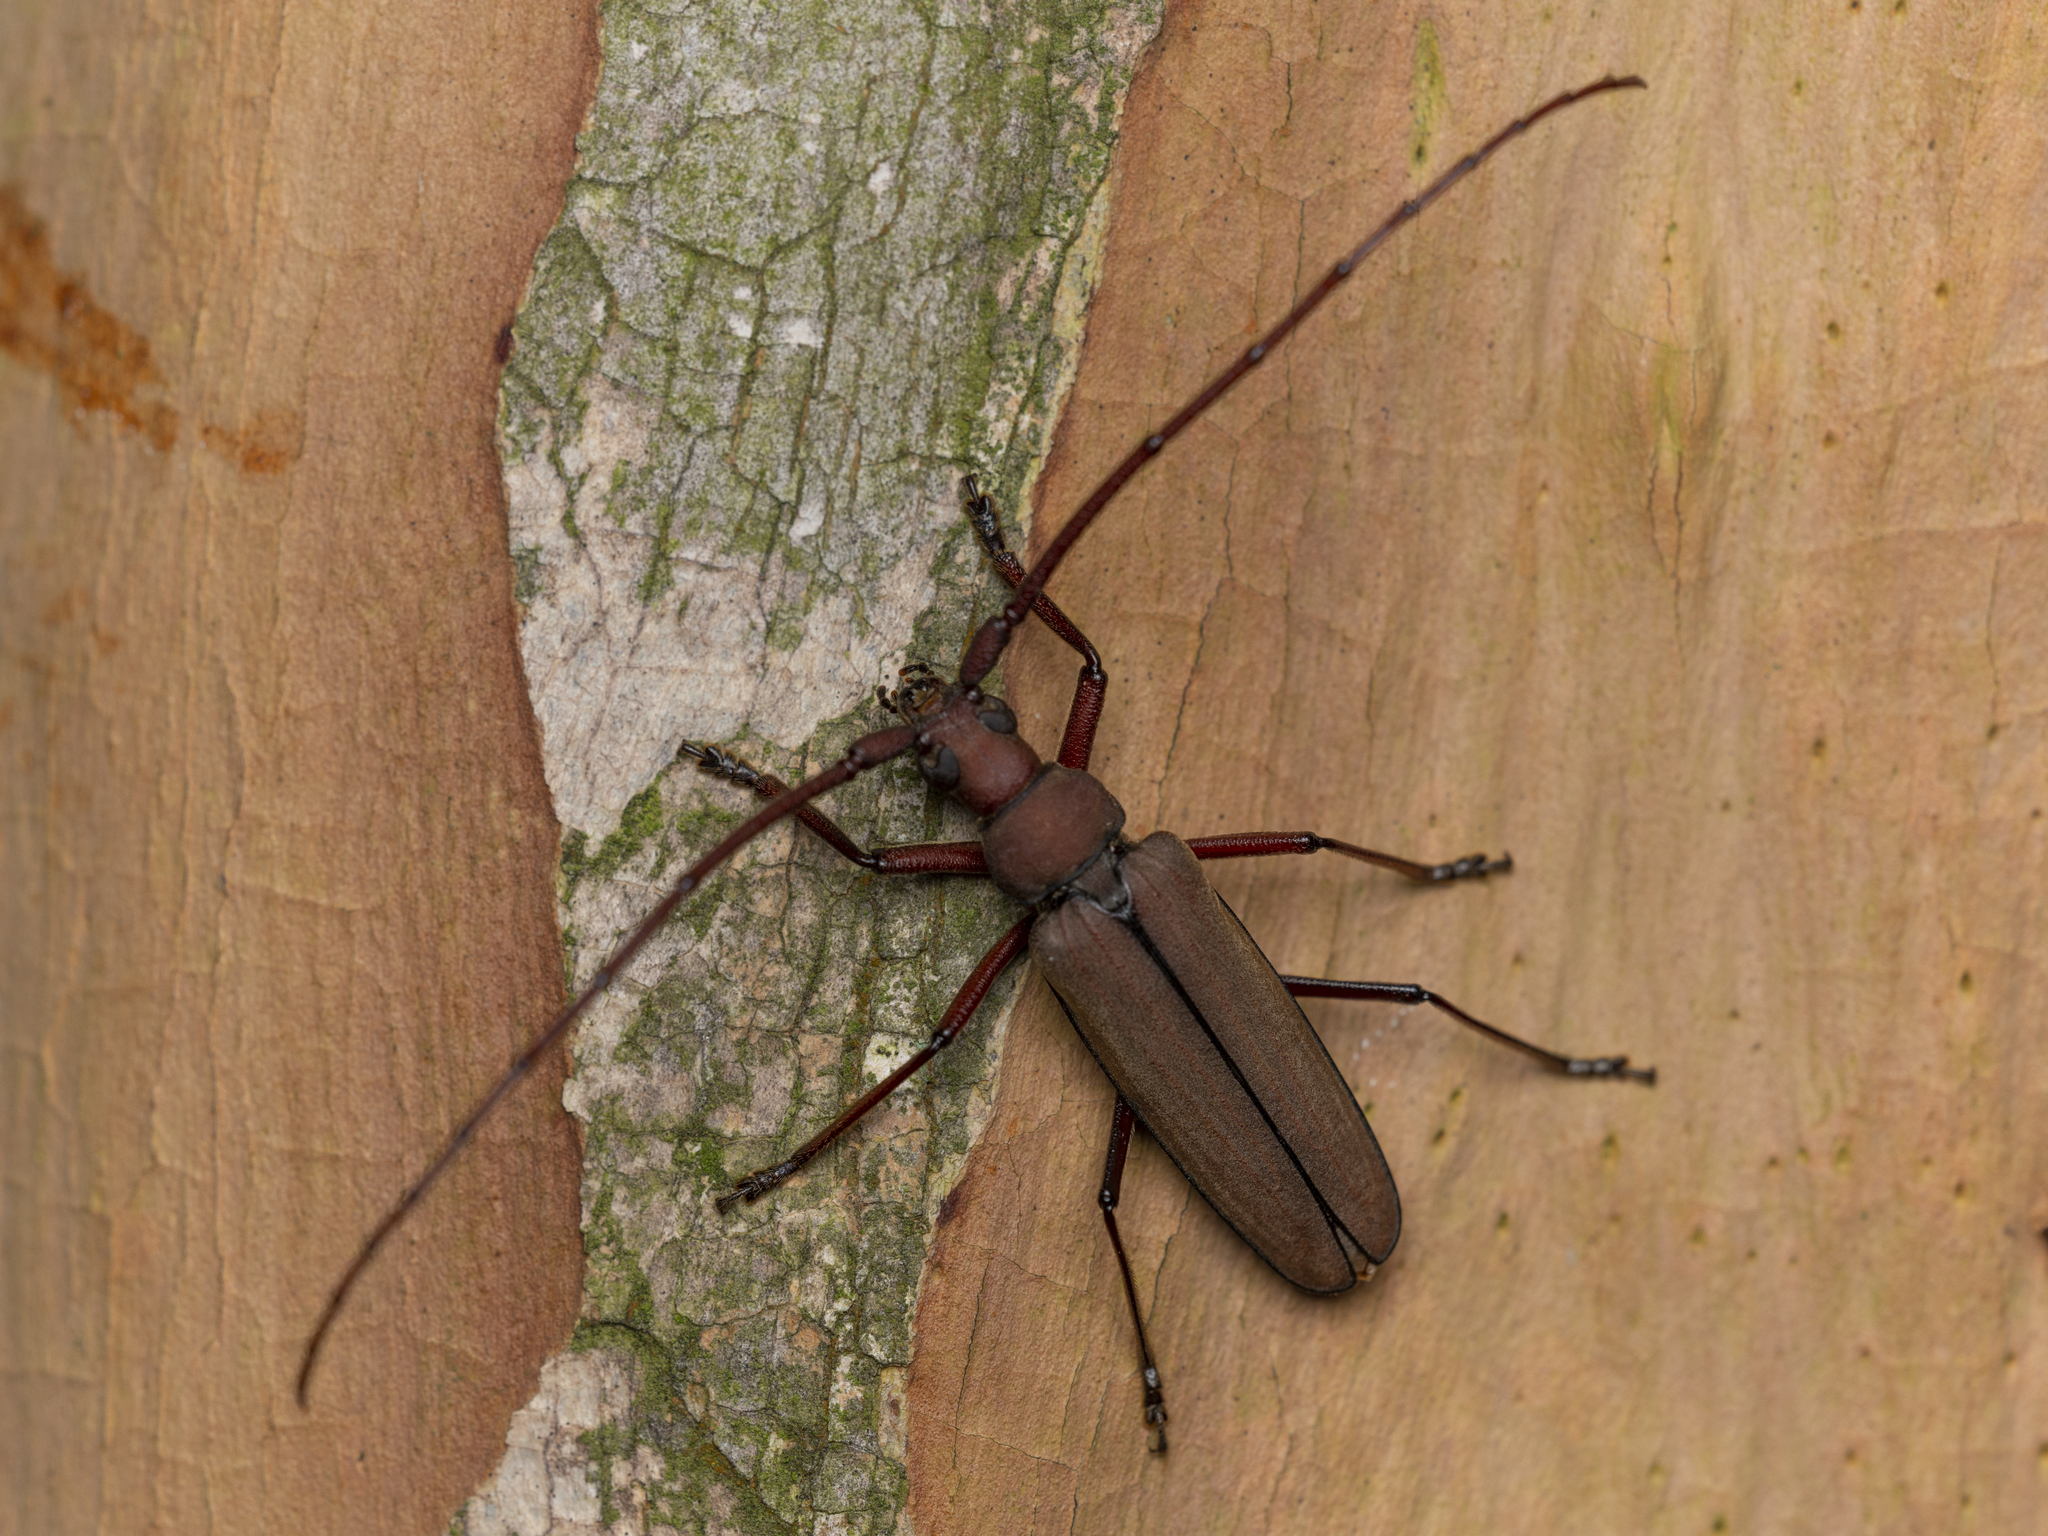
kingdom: Animalia
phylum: Arthropoda
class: Insecta
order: Coleoptera
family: Cerambycidae
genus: Aegolipton
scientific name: Aegolipton marginale
